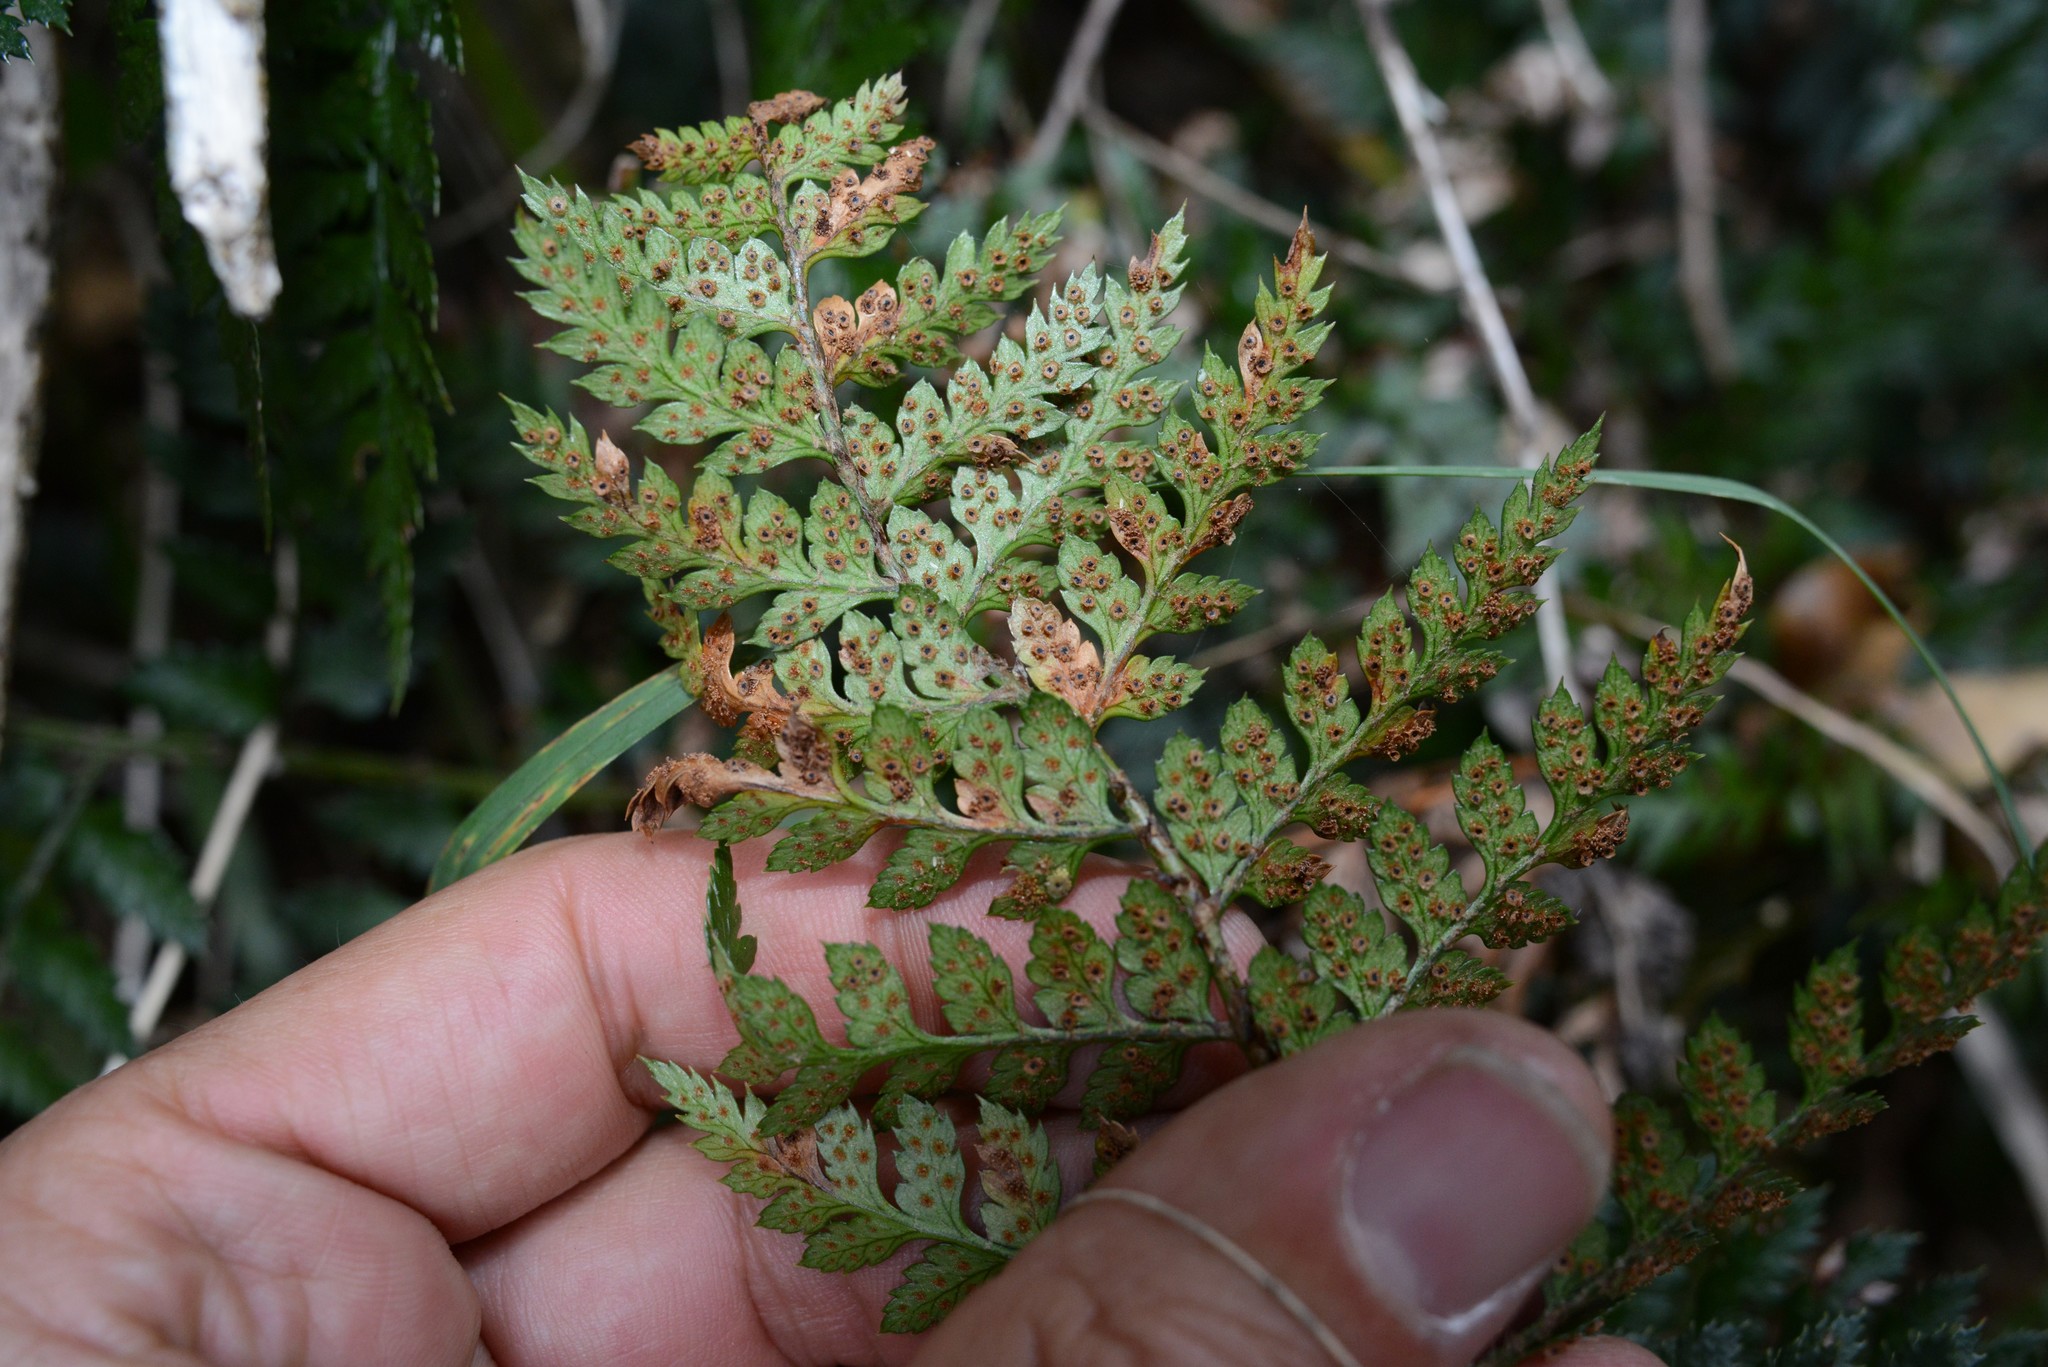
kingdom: Plantae
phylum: Tracheophyta
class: Polypodiopsida
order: Polypodiales
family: Dryopteridaceae
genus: Polystichum
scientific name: Polystichum oculatum
